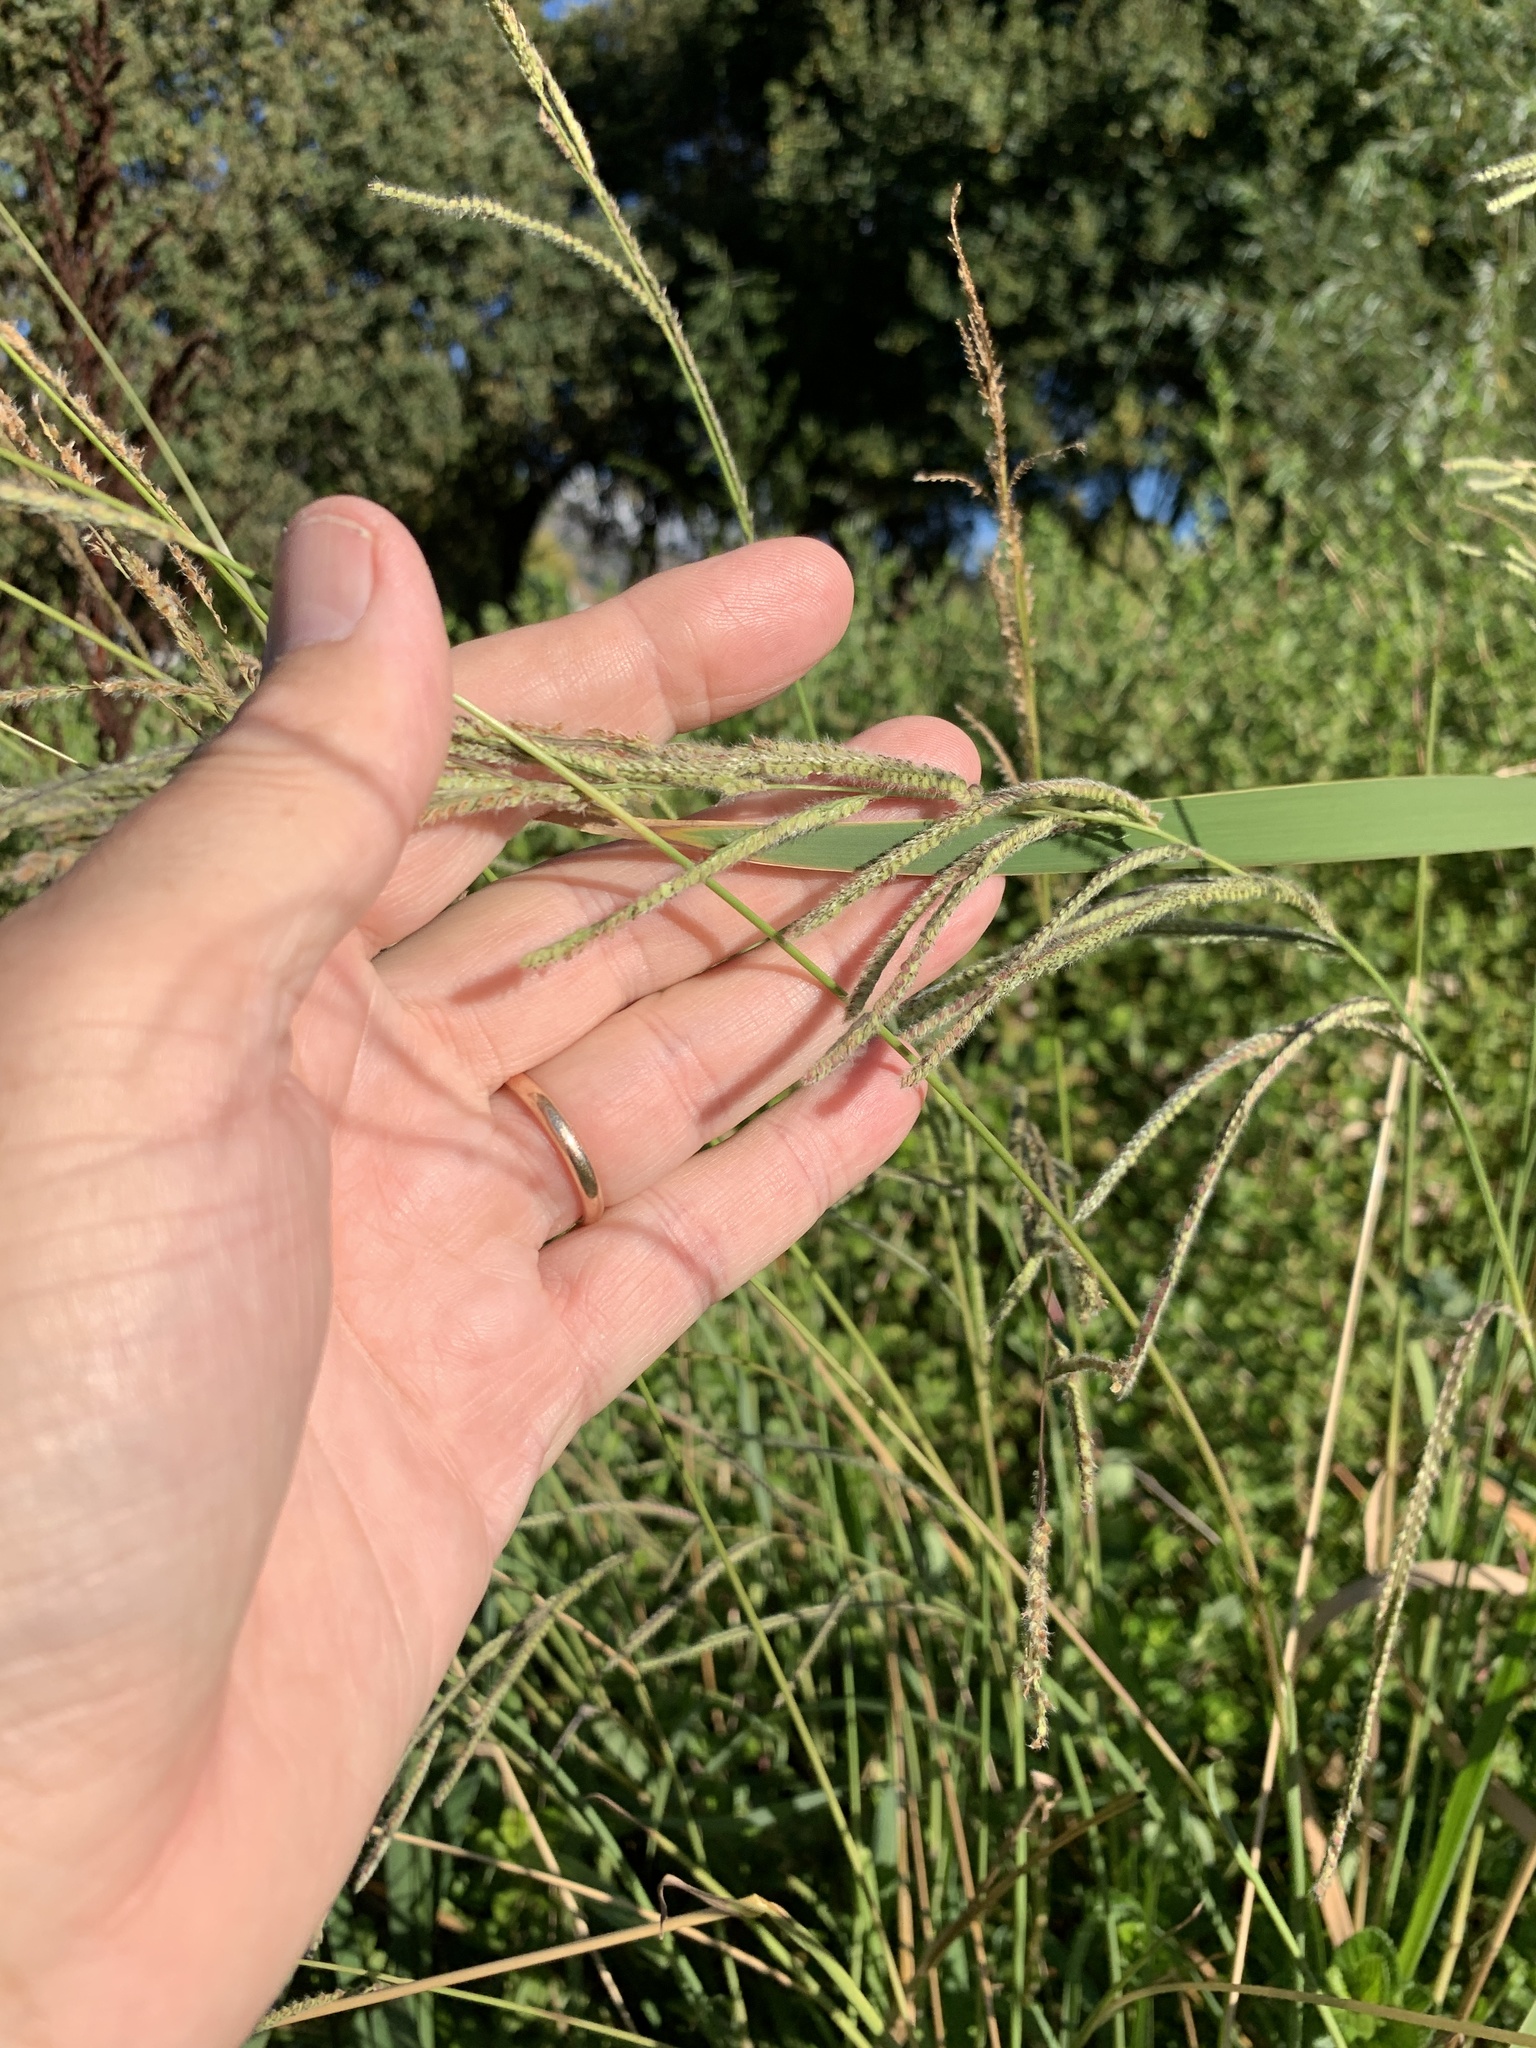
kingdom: Plantae
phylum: Tracheophyta
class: Liliopsida
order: Poales
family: Poaceae
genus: Paspalum
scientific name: Paspalum urvillei
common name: Vasey's grass
